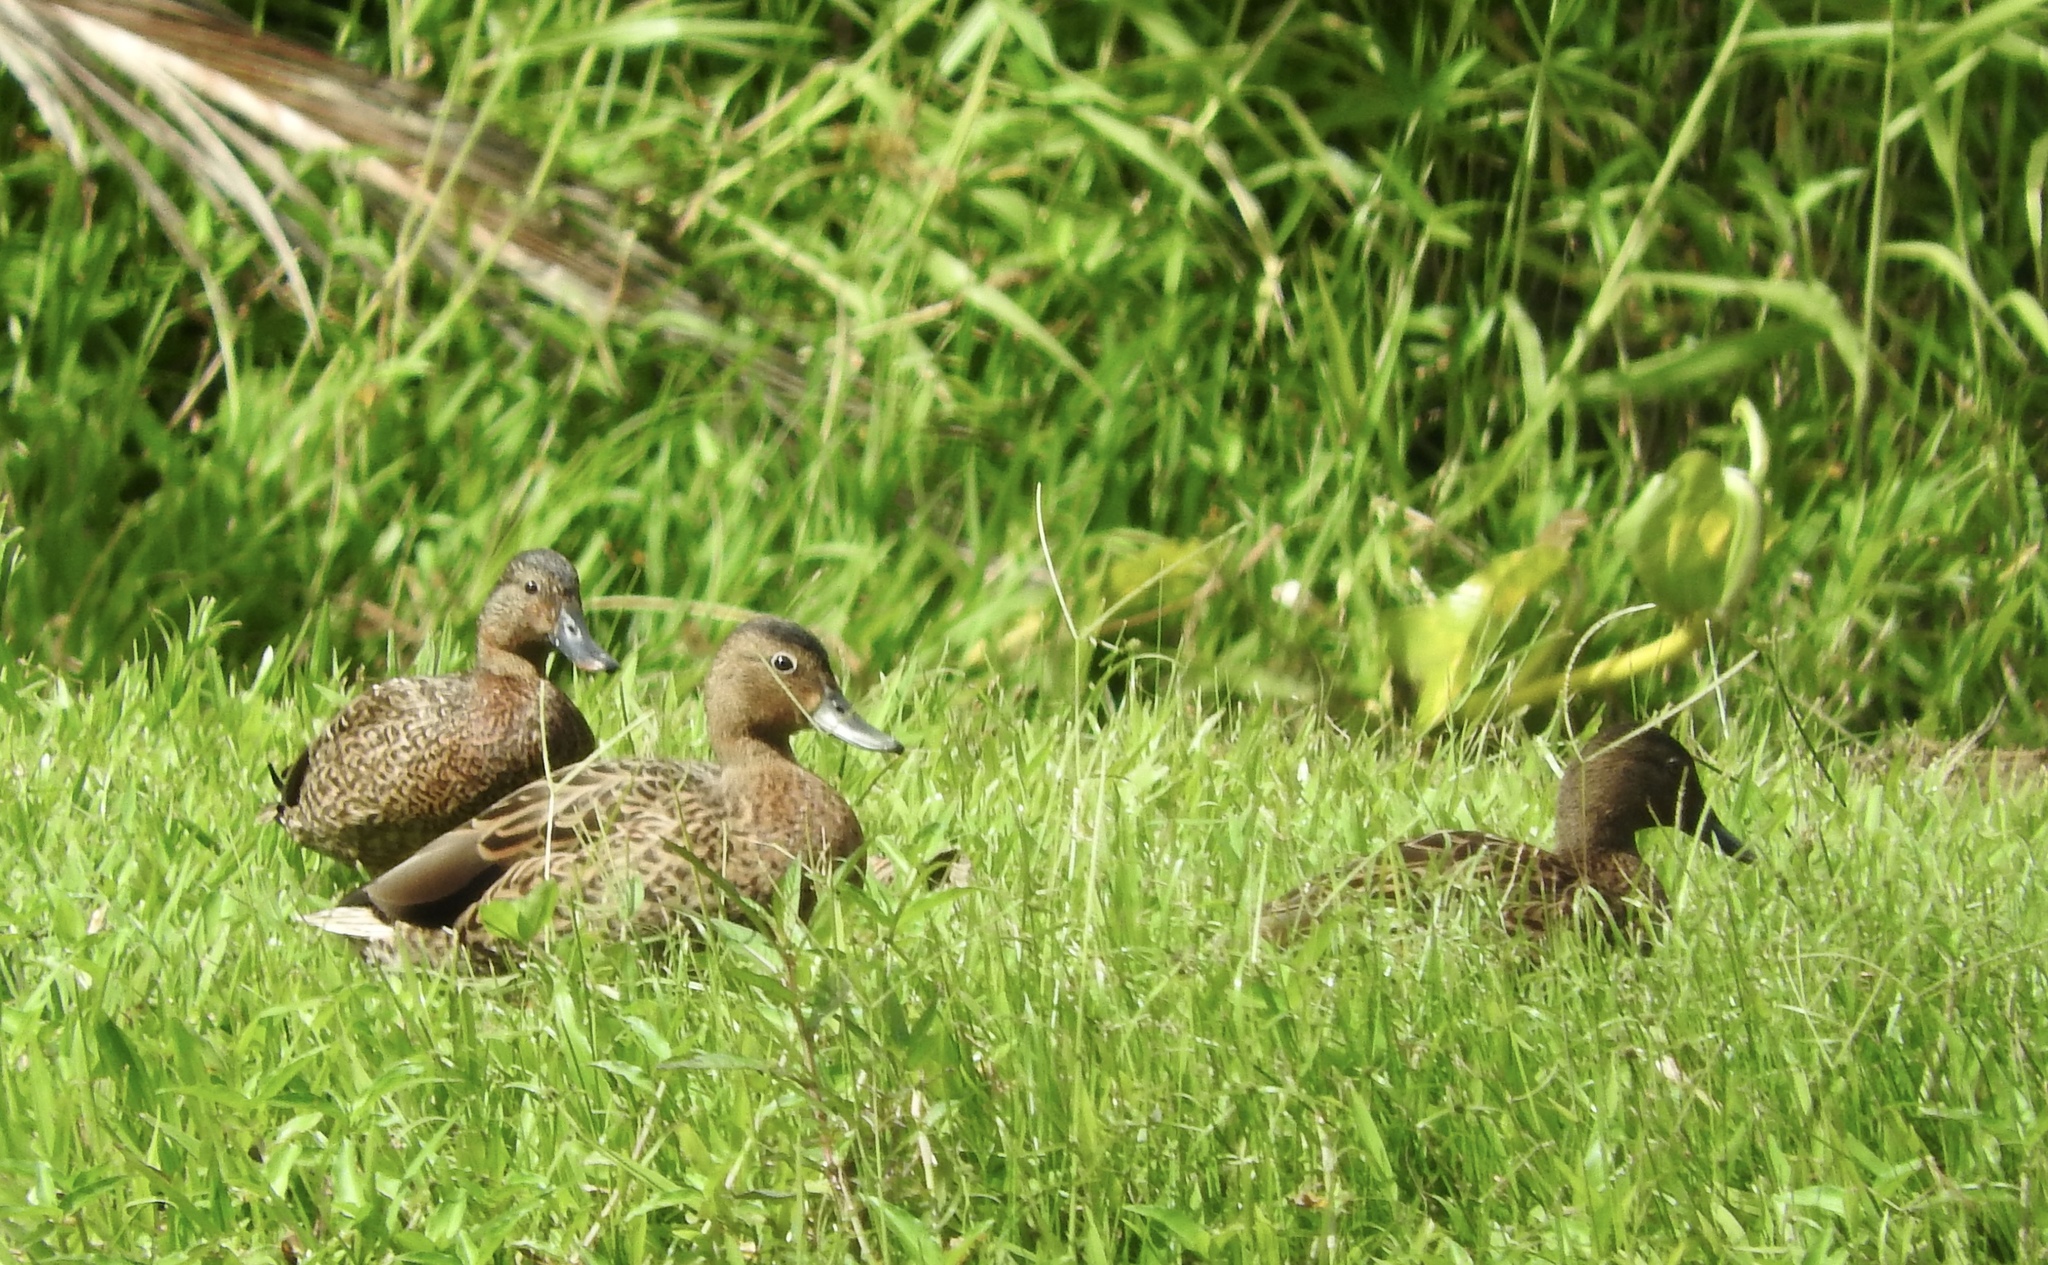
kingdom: Animalia
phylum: Chordata
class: Aves
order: Anseriformes
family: Anatidae
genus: Anas
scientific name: Anas wyvilliana
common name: Hawaiian duck
